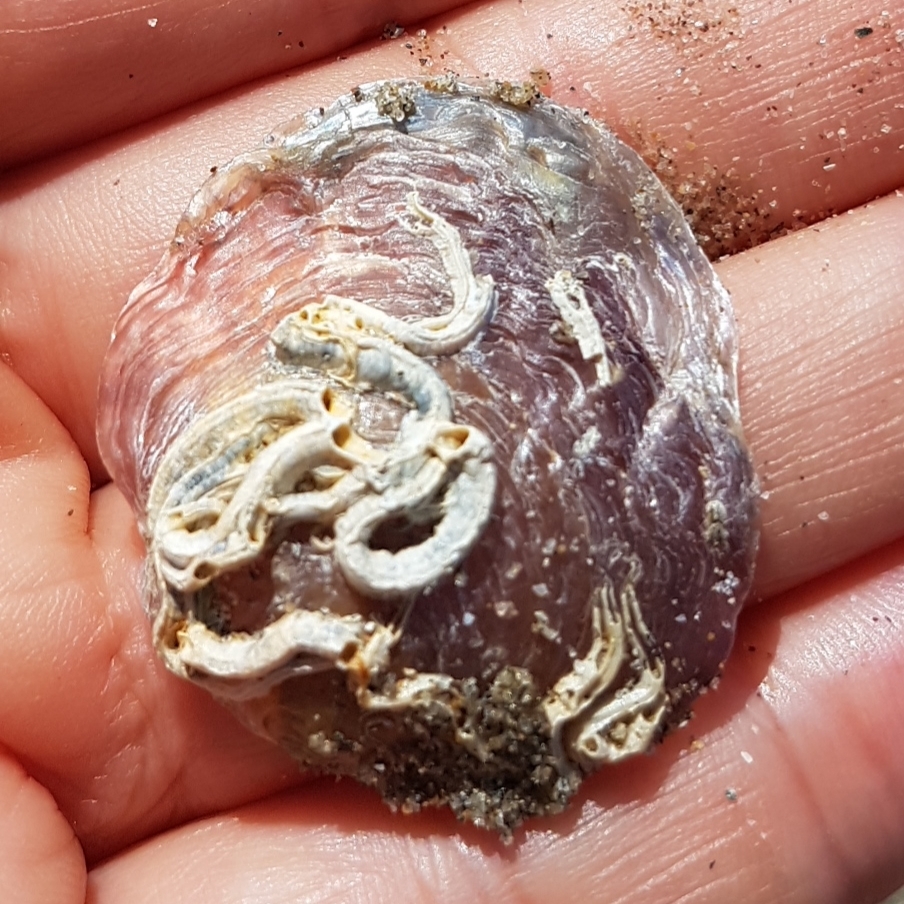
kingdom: Animalia
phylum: Mollusca
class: Bivalvia
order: Pectinida
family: Anomiidae
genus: Anomia
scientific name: Anomia ephippium
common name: Saddle oyster
